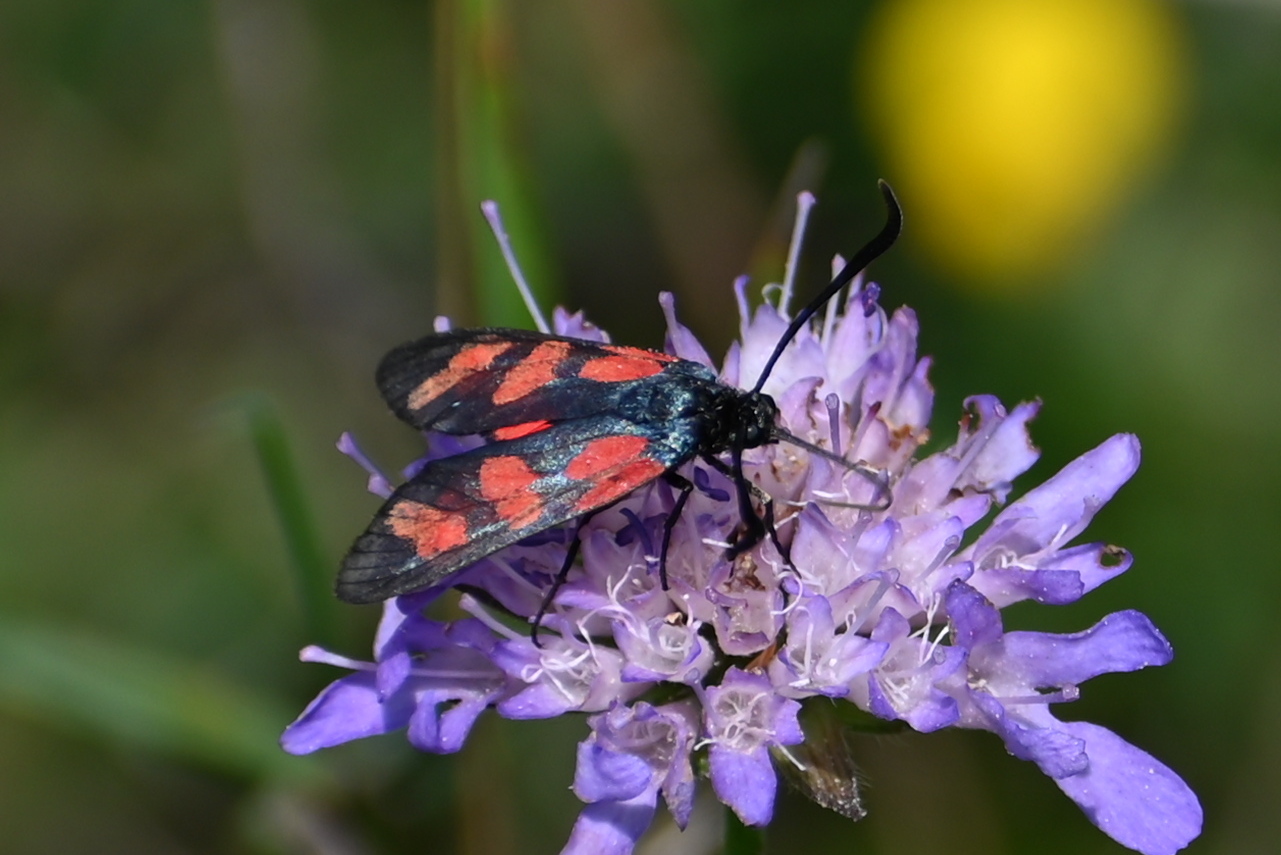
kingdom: Animalia
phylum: Arthropoda
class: Insecta
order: Lepidoptera
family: Zygaenidae
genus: Zygaena
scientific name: Zygaena filipendulae
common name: Six-spot burnet
